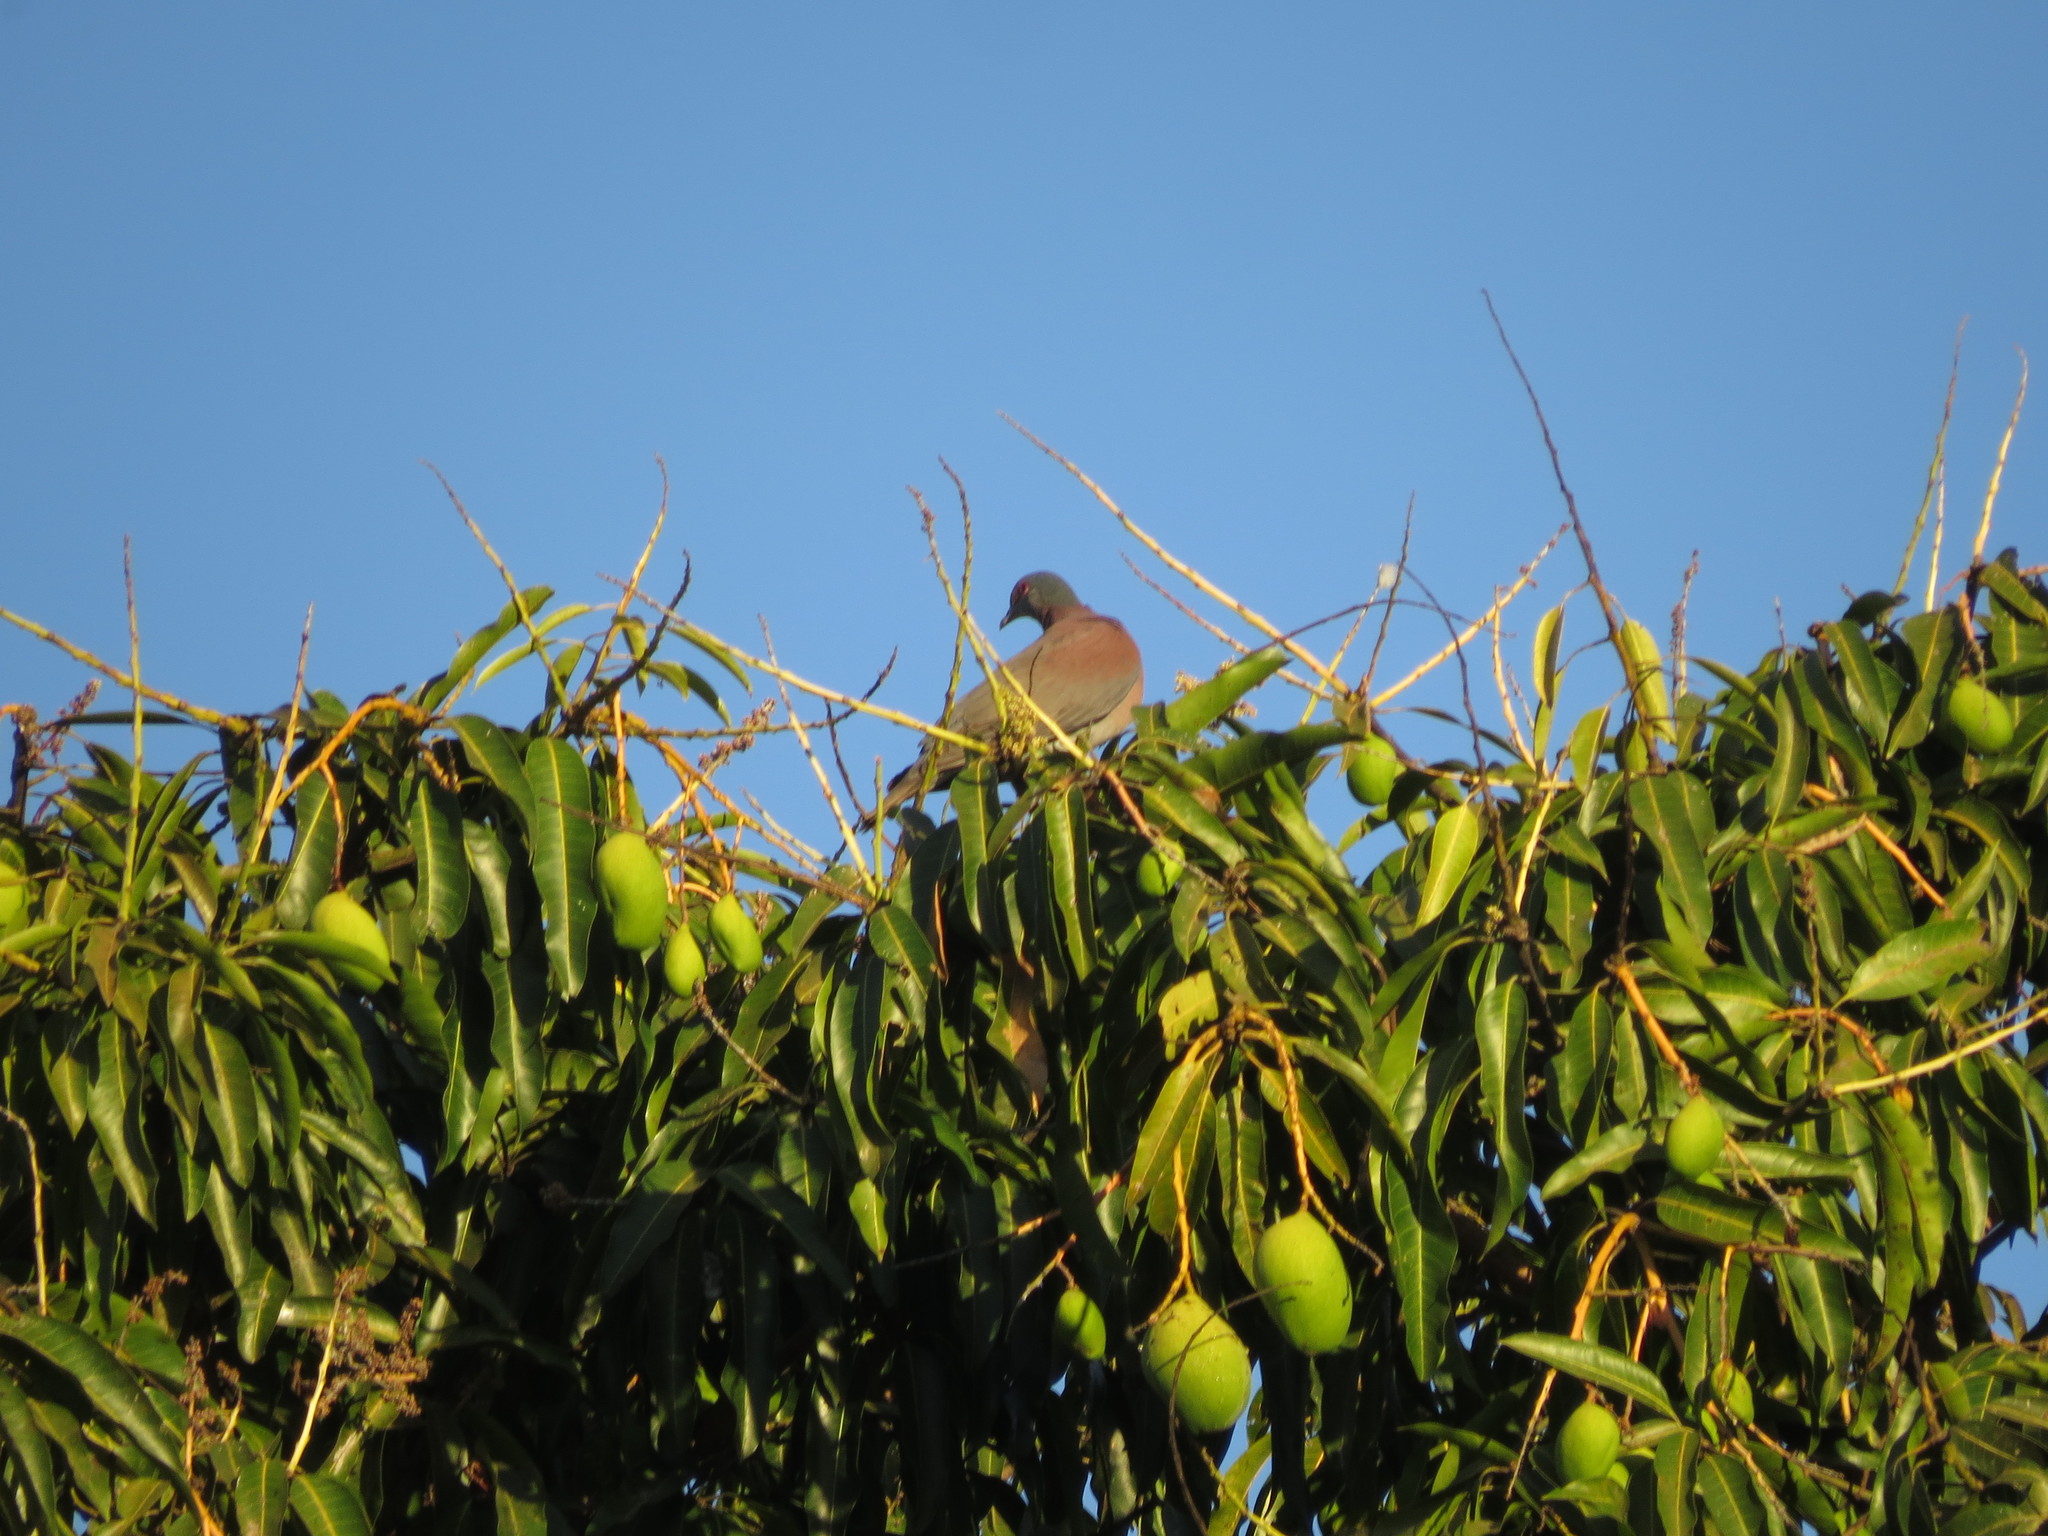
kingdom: Animalia
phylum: Chordata
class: Aves
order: Columbiformes
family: Columbidae
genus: Patagioenas
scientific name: Patagioenas cayennensis
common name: Pale-vented pigeon
